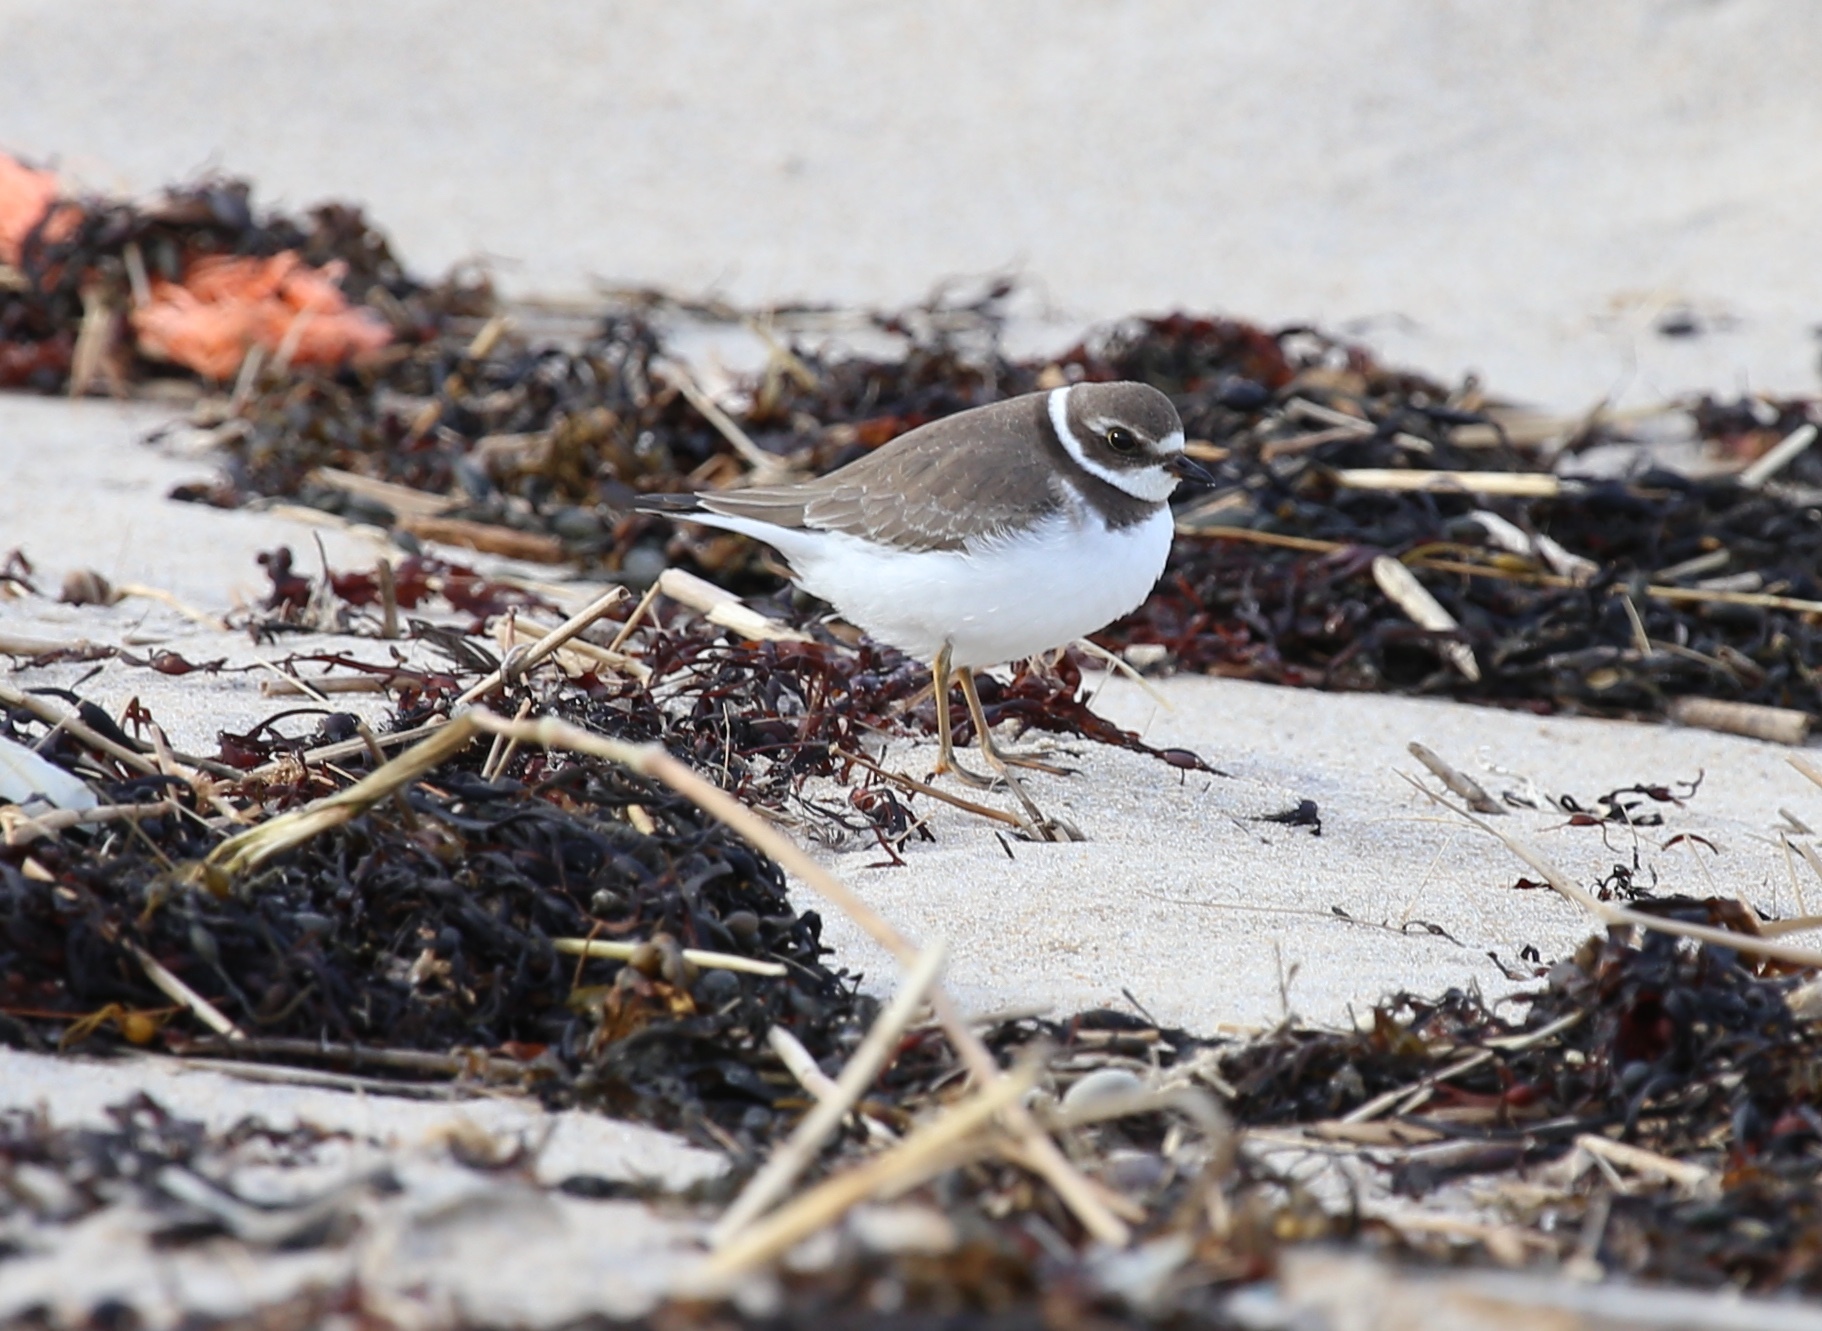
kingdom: Animalia
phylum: Chordata
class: Aves
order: Charadriiformes
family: Charadriidae
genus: Charadrius
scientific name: Charadrius semipalmatus
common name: Semipalmated plover
